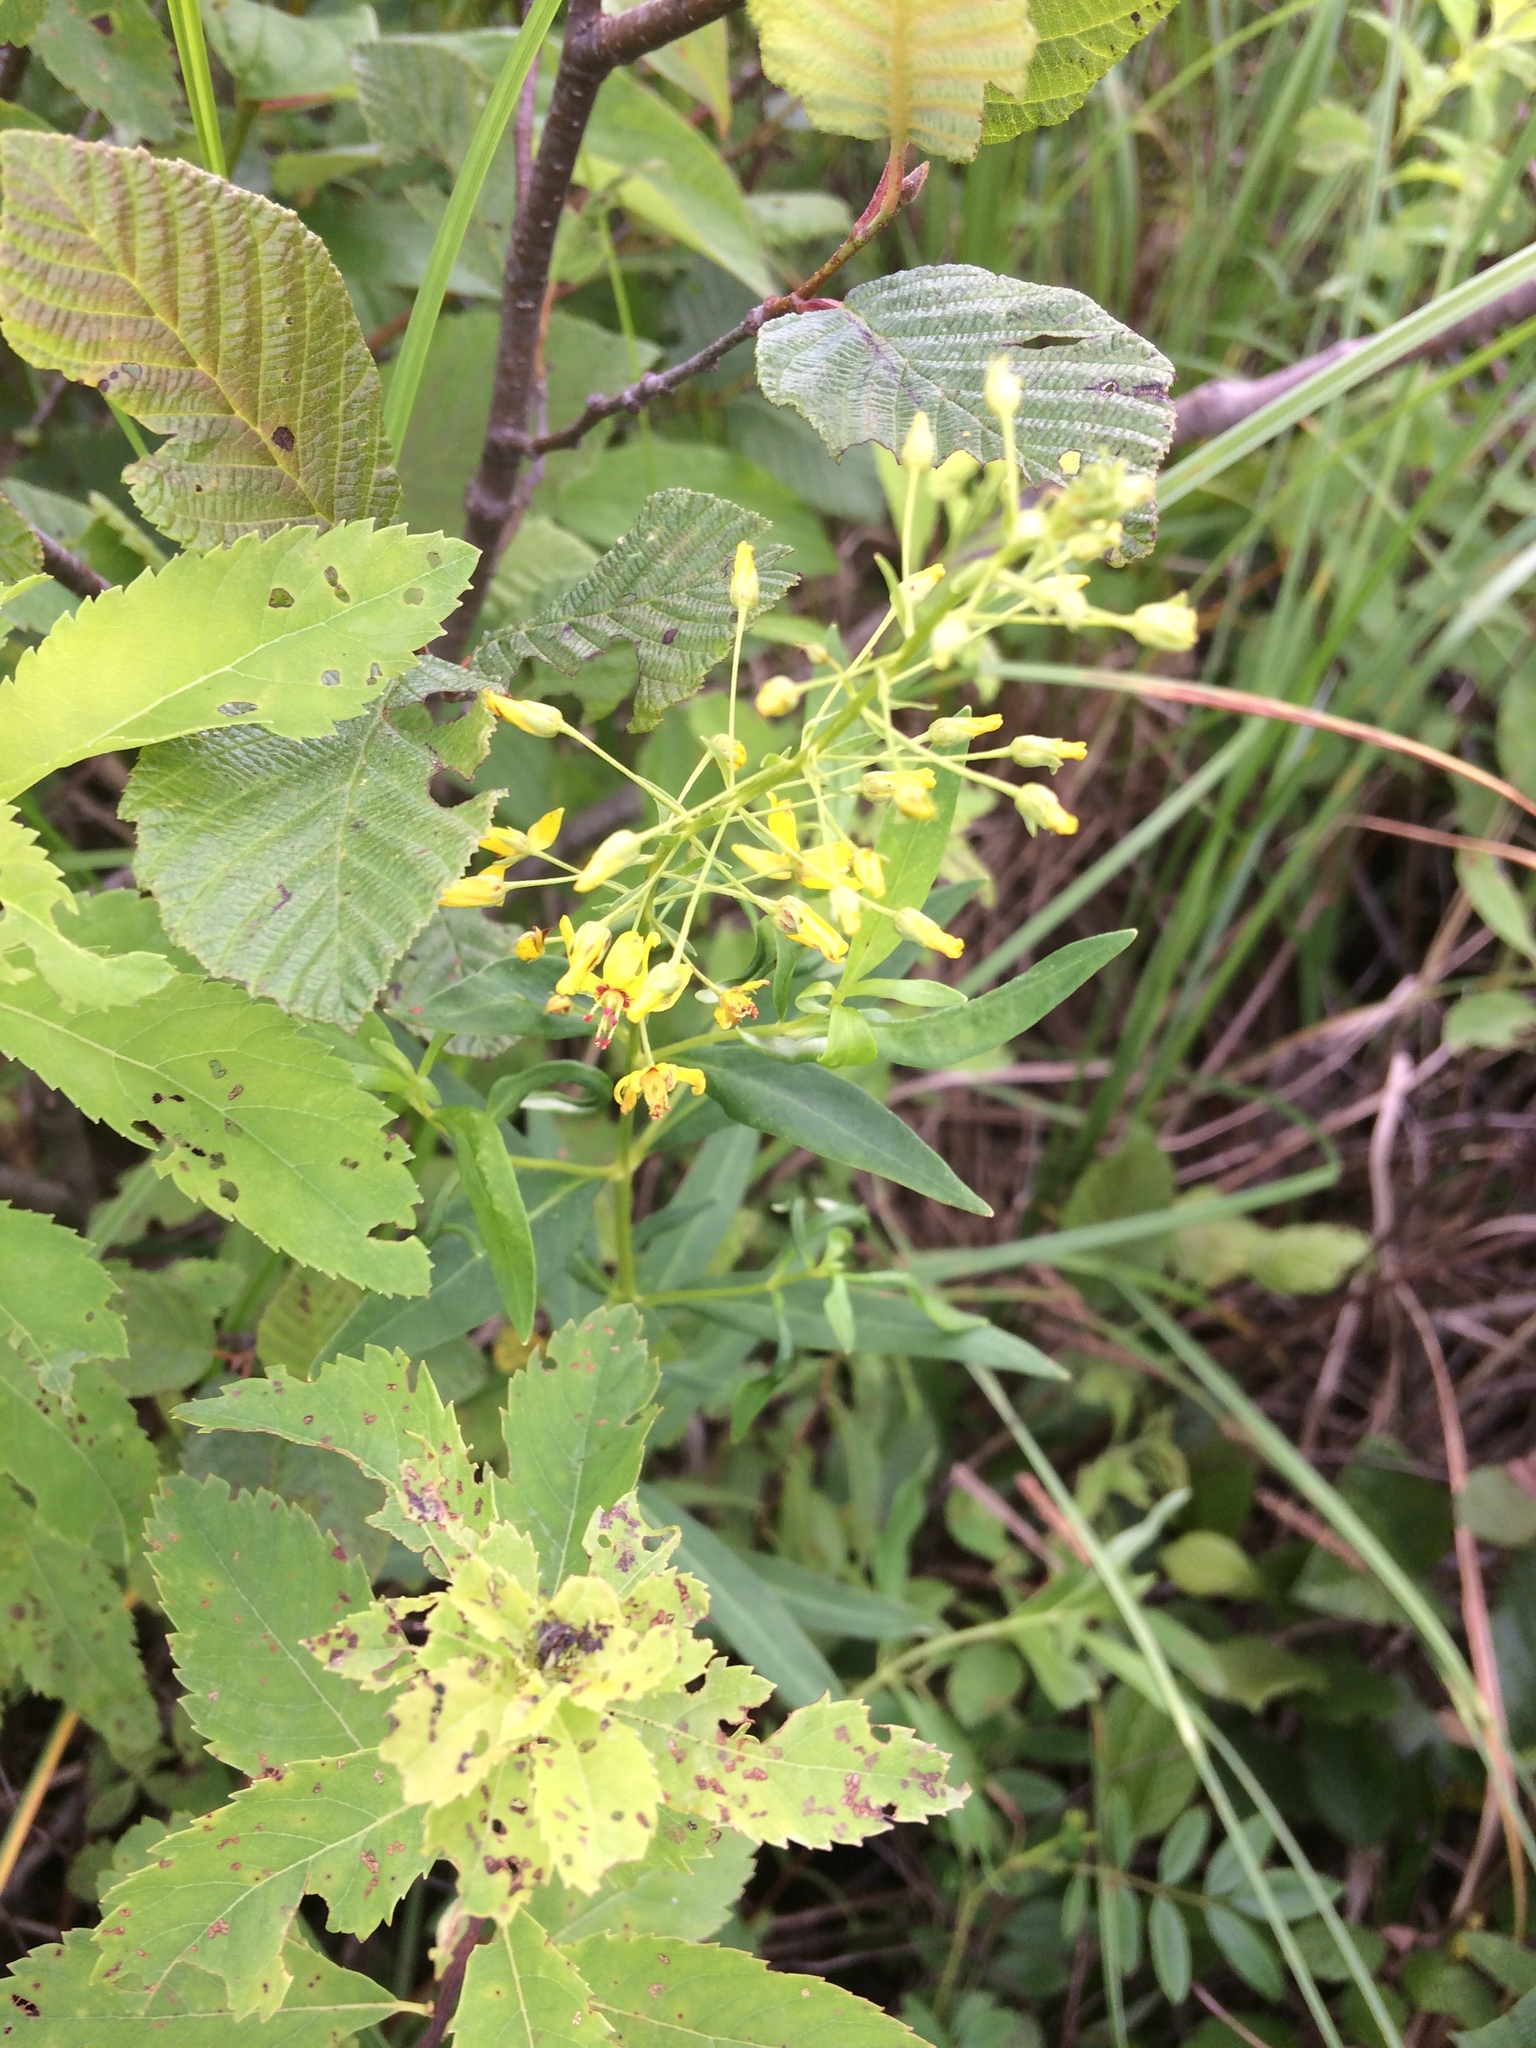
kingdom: Plantae
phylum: Tracheophyta
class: Magnoliopsida
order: Ericales
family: Primulaceae
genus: Lysimachia
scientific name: Lysimachia terrestris
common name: Lake loosestrife
